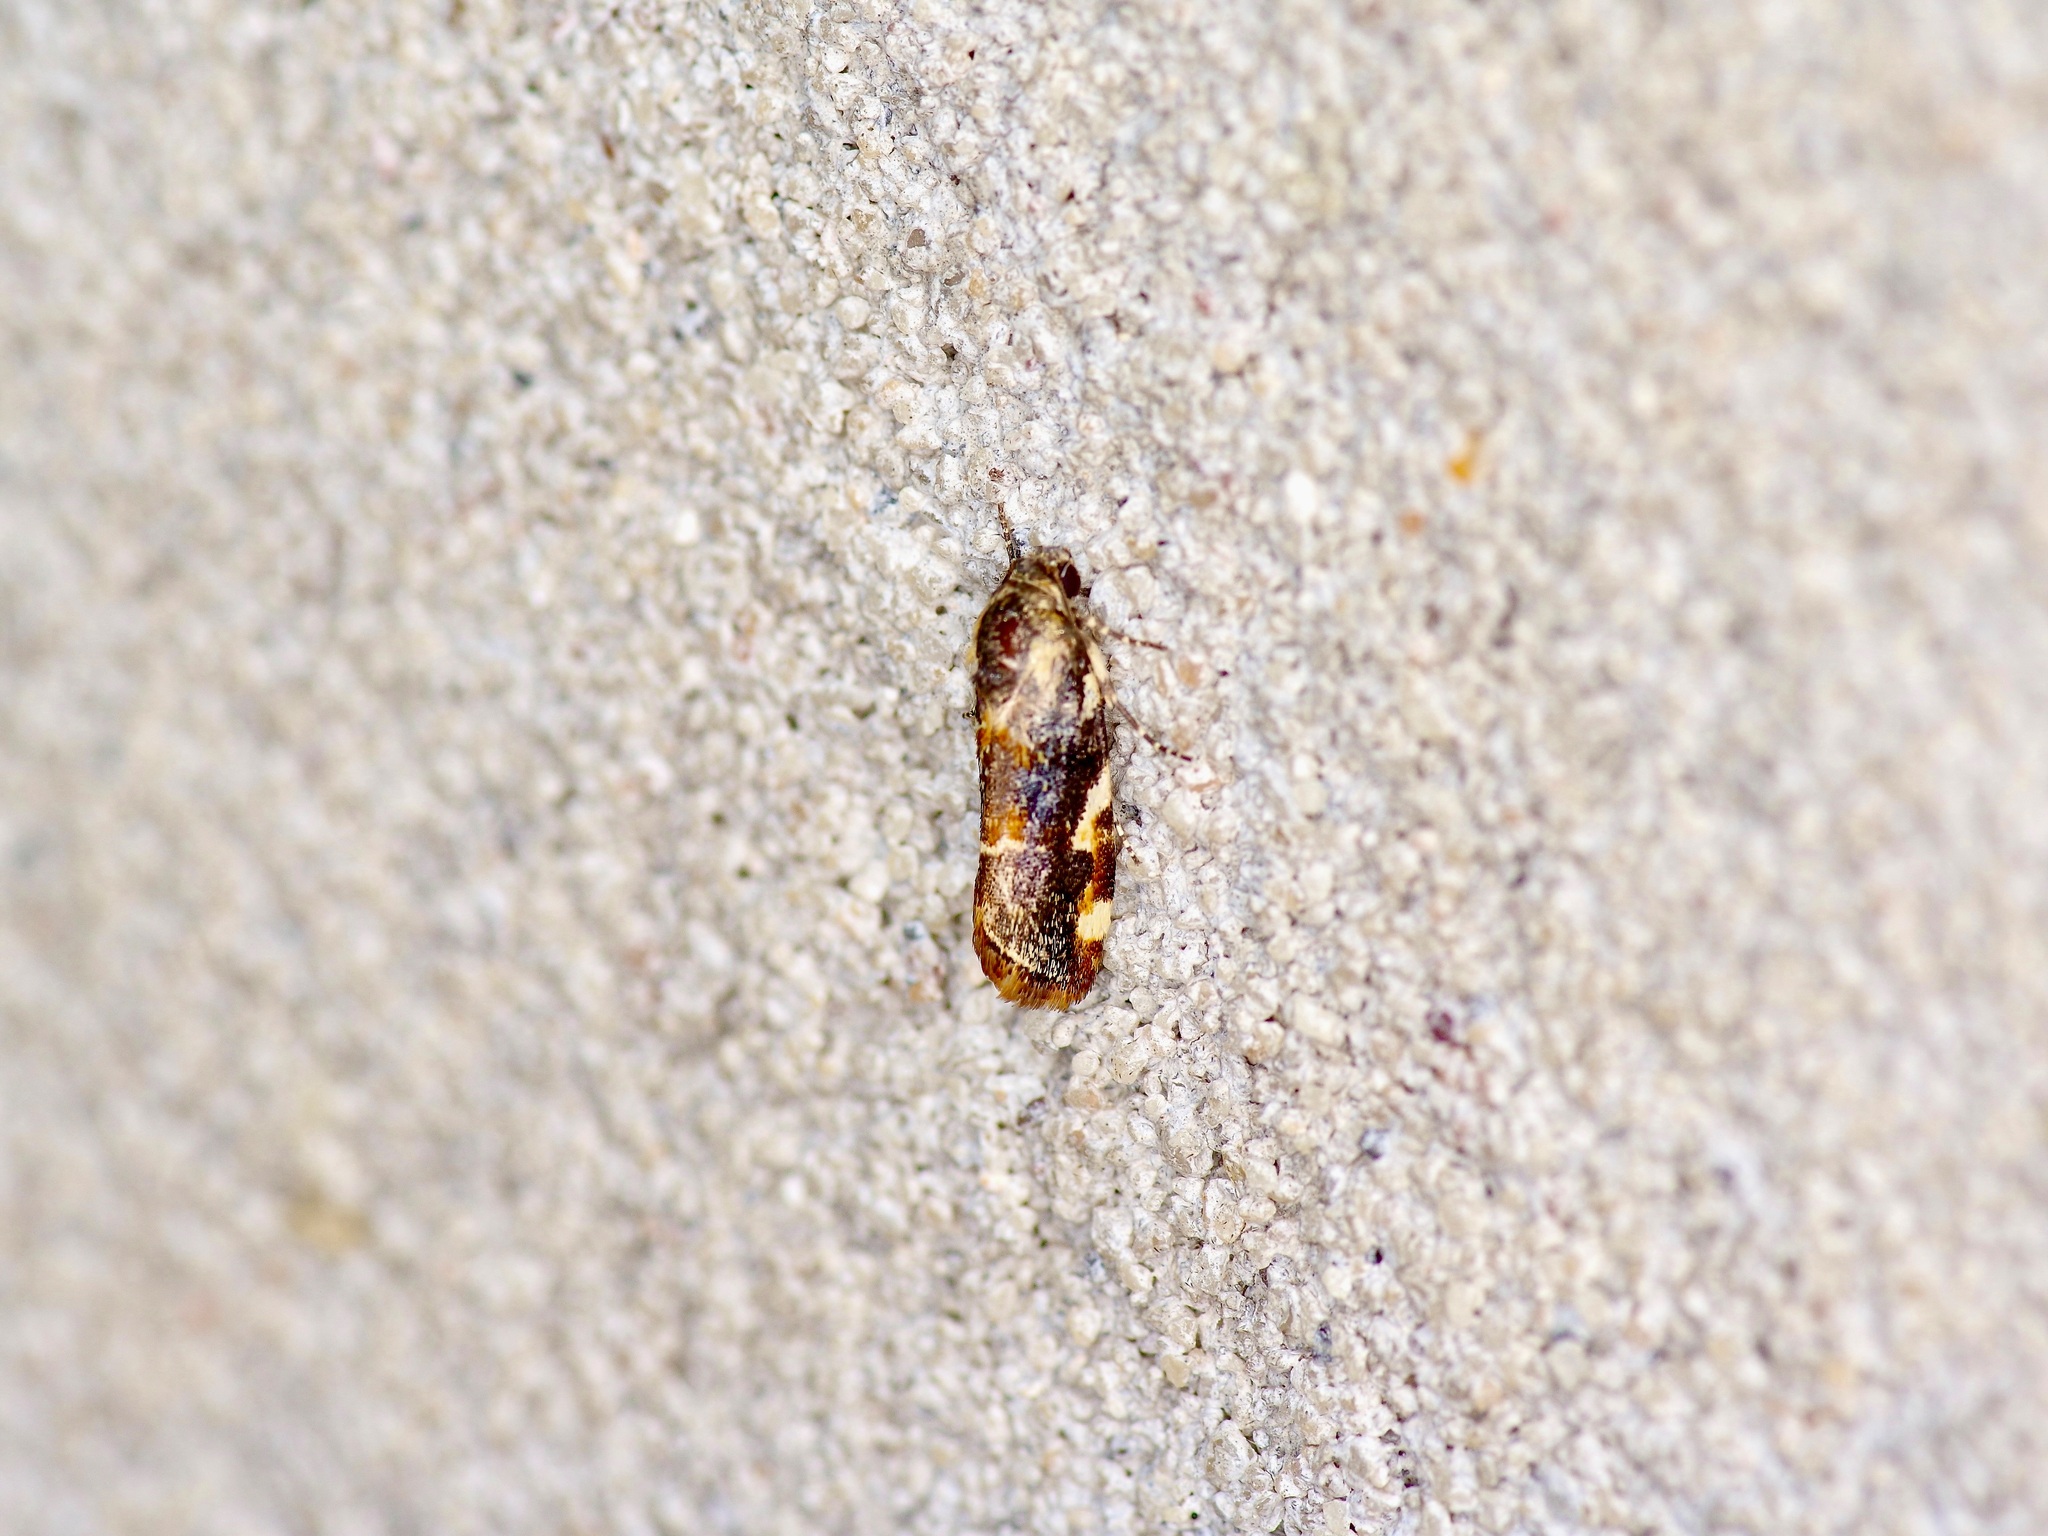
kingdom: Animalia
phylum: Arthropoda
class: Insecta
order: Lepidoptera
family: Noctuidae
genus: Spragueia
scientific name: Spragueia jaguaralis
